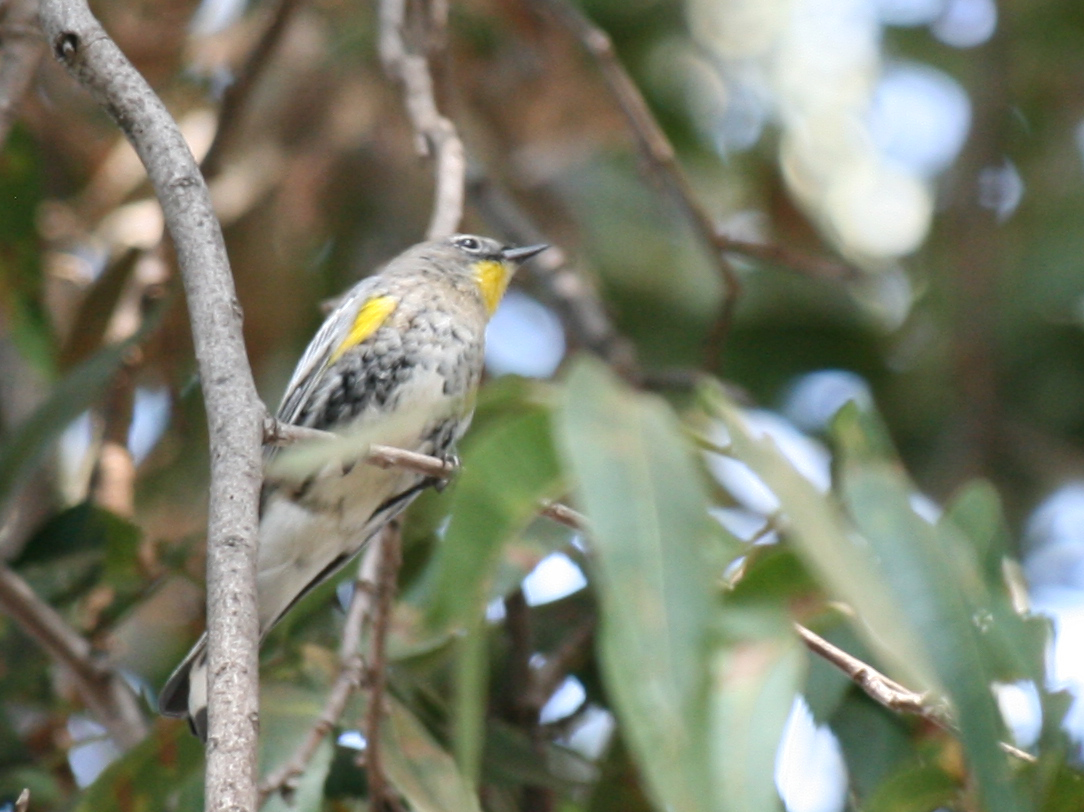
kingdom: Animalia
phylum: Chordata
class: Aves
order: Passeriformes
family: Parulidae
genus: Setophaga
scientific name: Setophaga coronata
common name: Myrtle warbler
